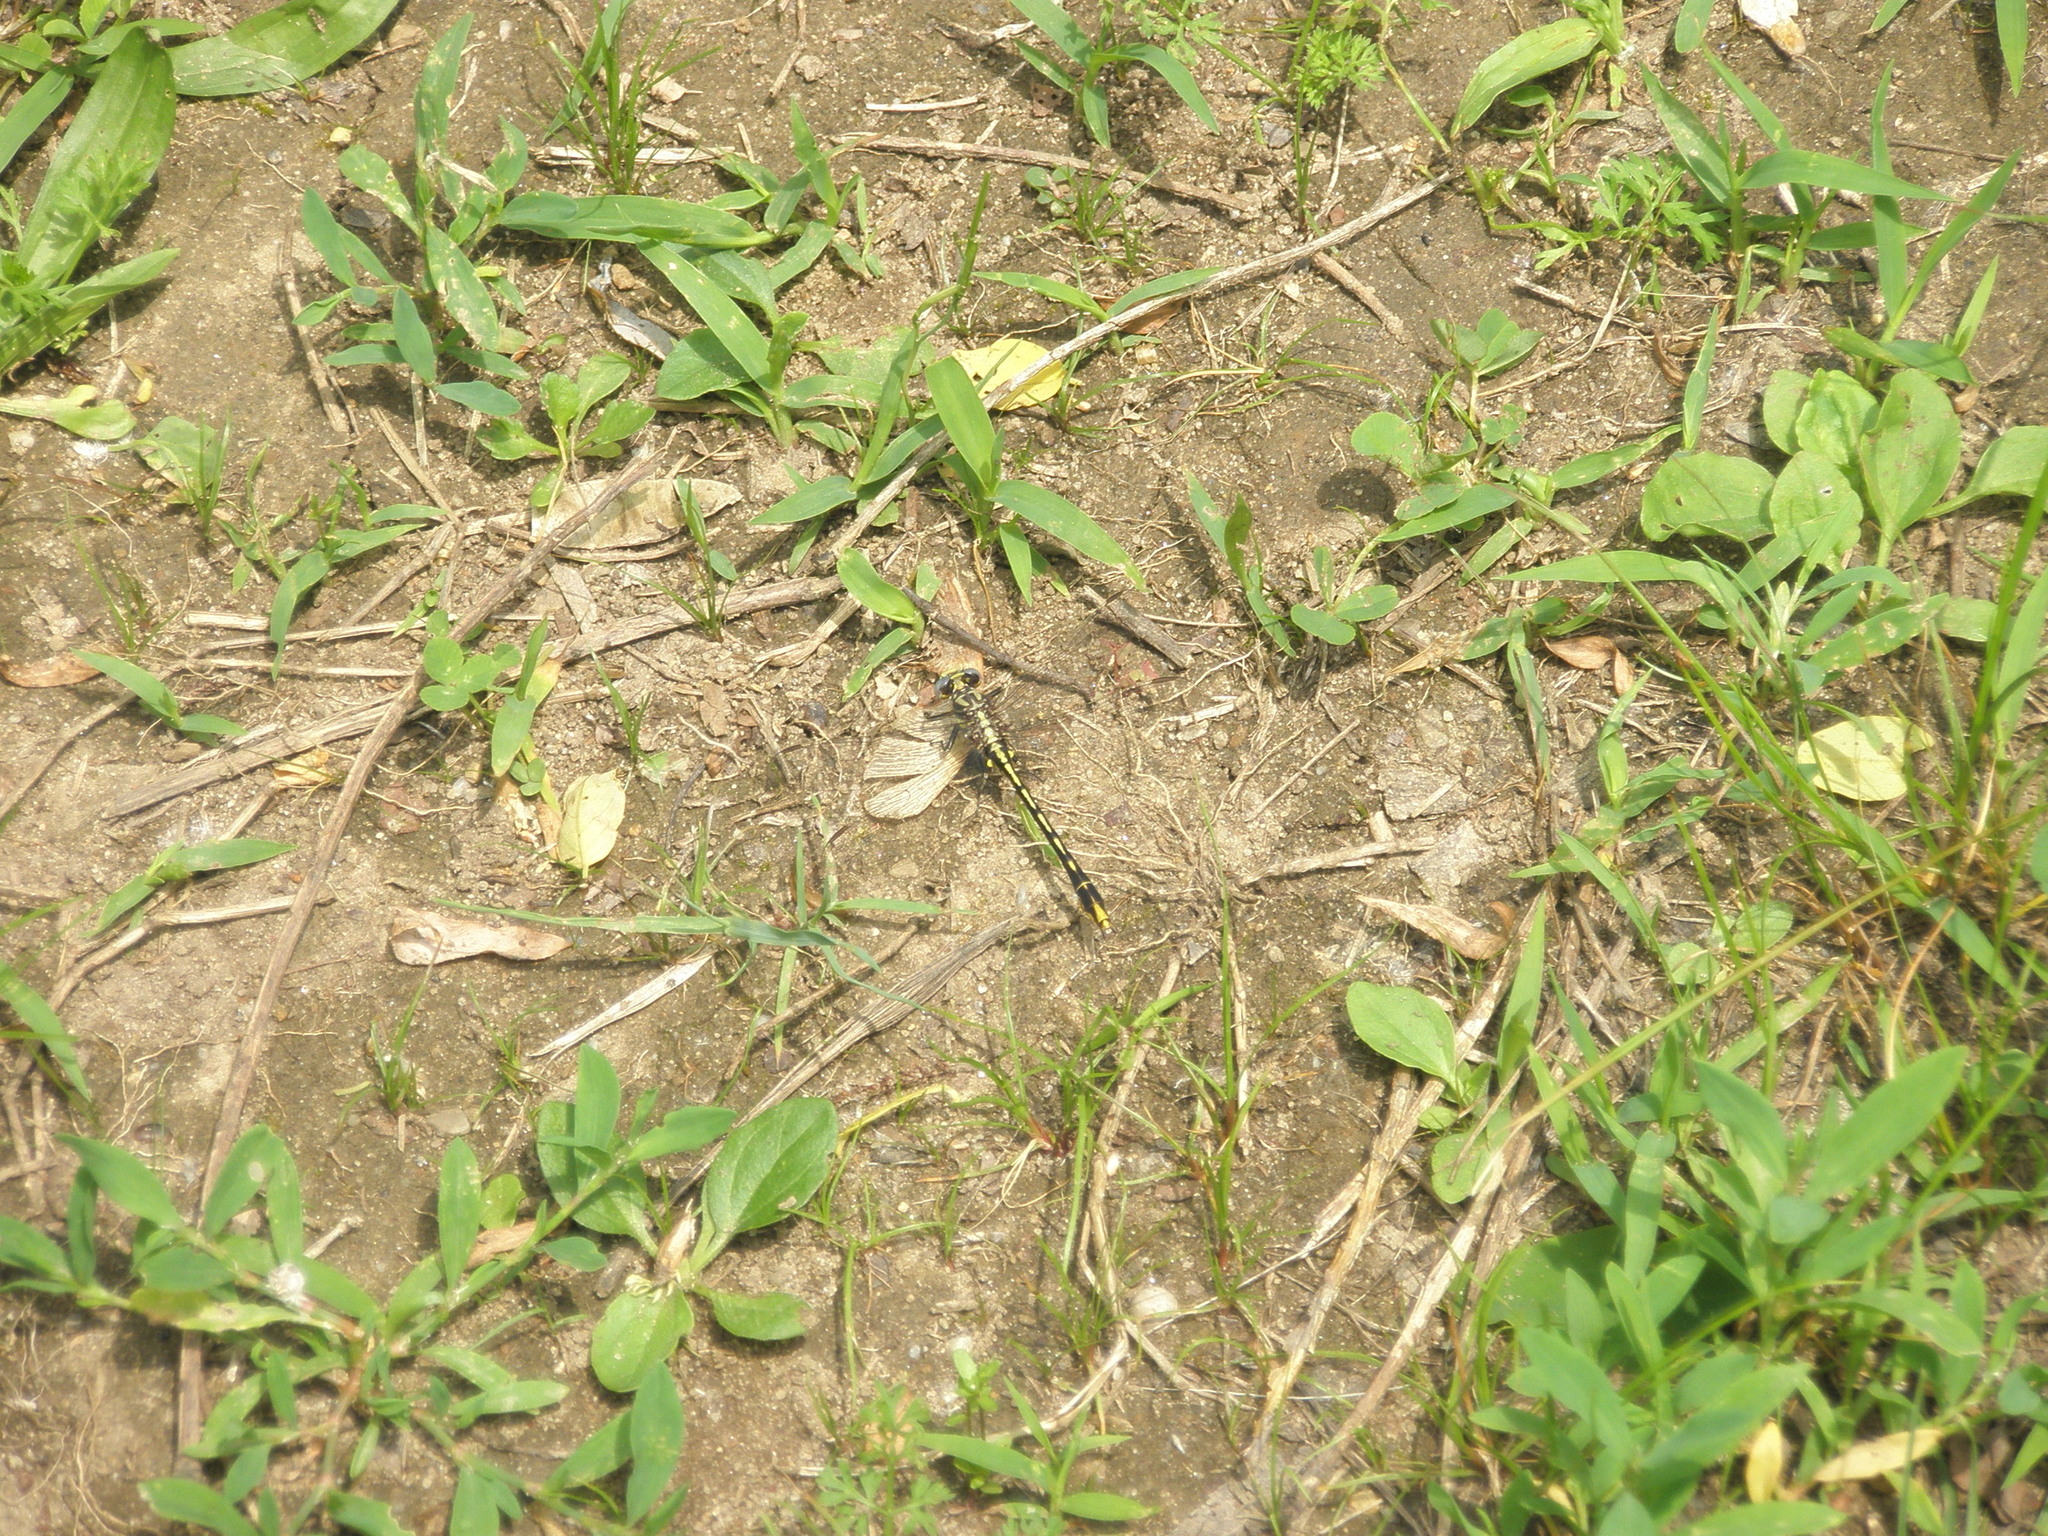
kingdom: Animalia
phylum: Arthropoda
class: Insecta
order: Odonata
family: Gomphidae
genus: Phanogomphus
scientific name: Phanogomphus exilis
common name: Lancet clubtail
